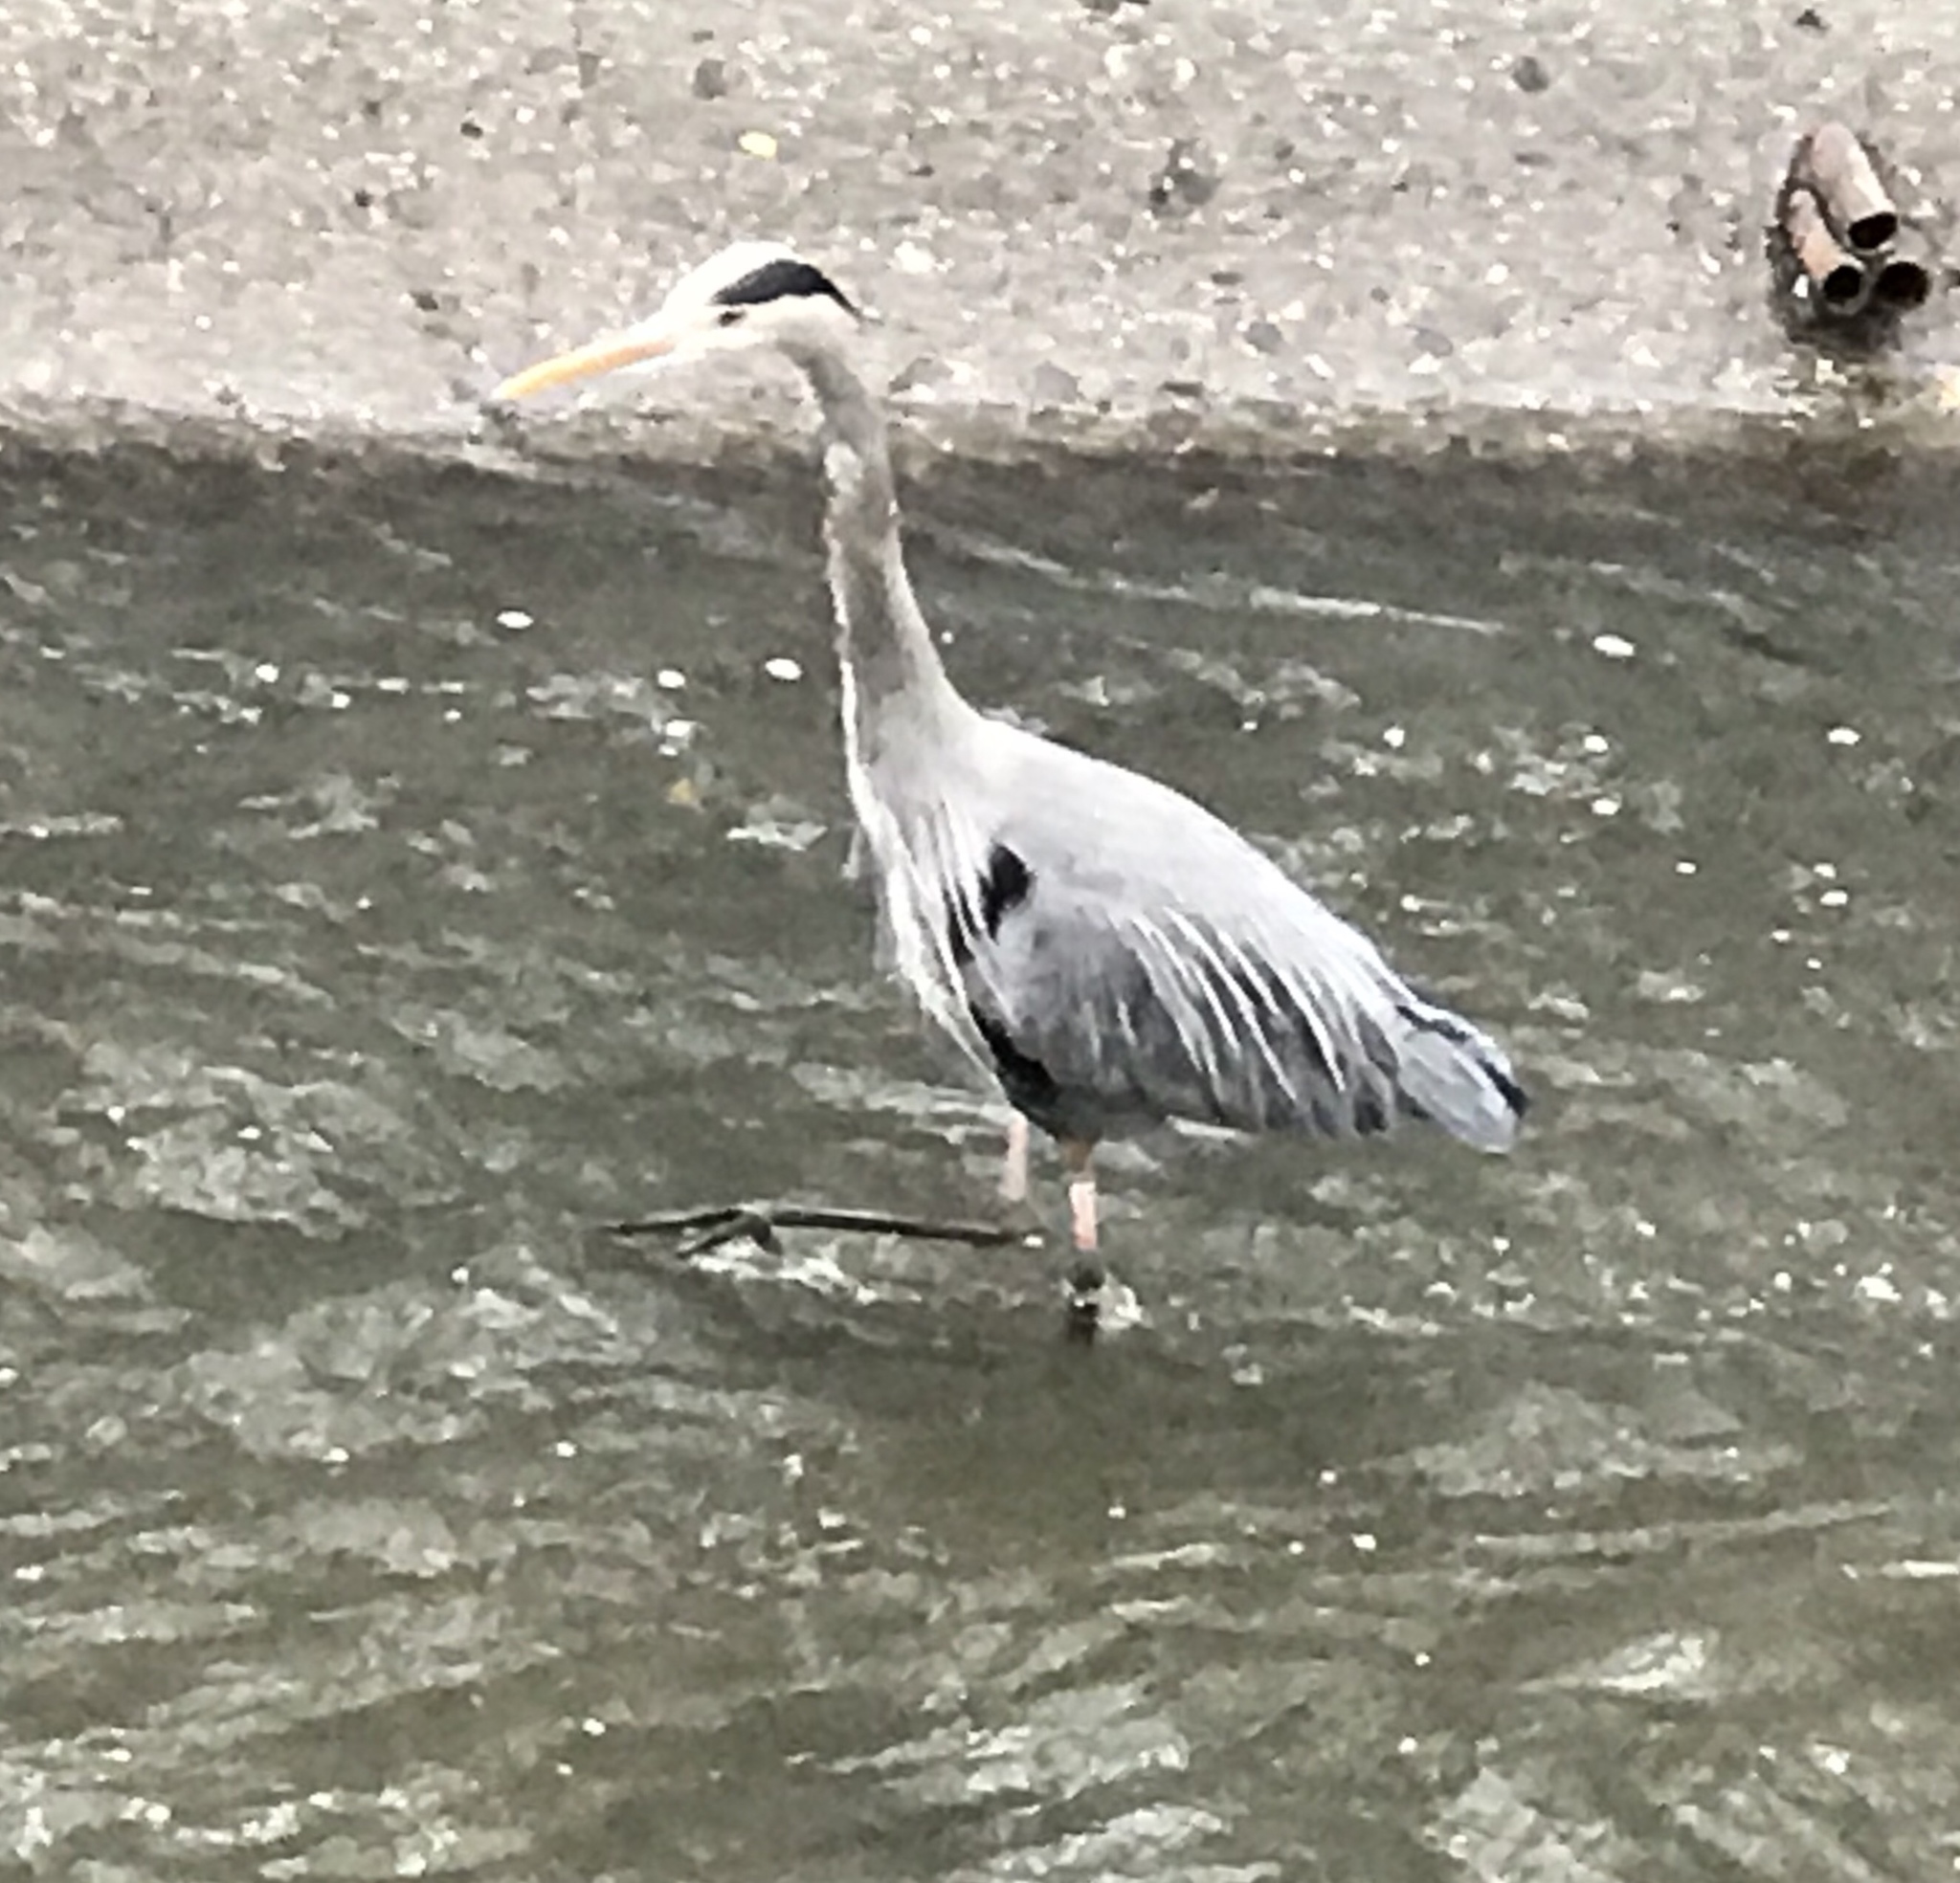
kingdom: Animalia
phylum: Chordata
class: Aves
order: Pelecaniformes
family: Ardeidae
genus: Ardea
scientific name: Ardea herodias
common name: Great blue heron
